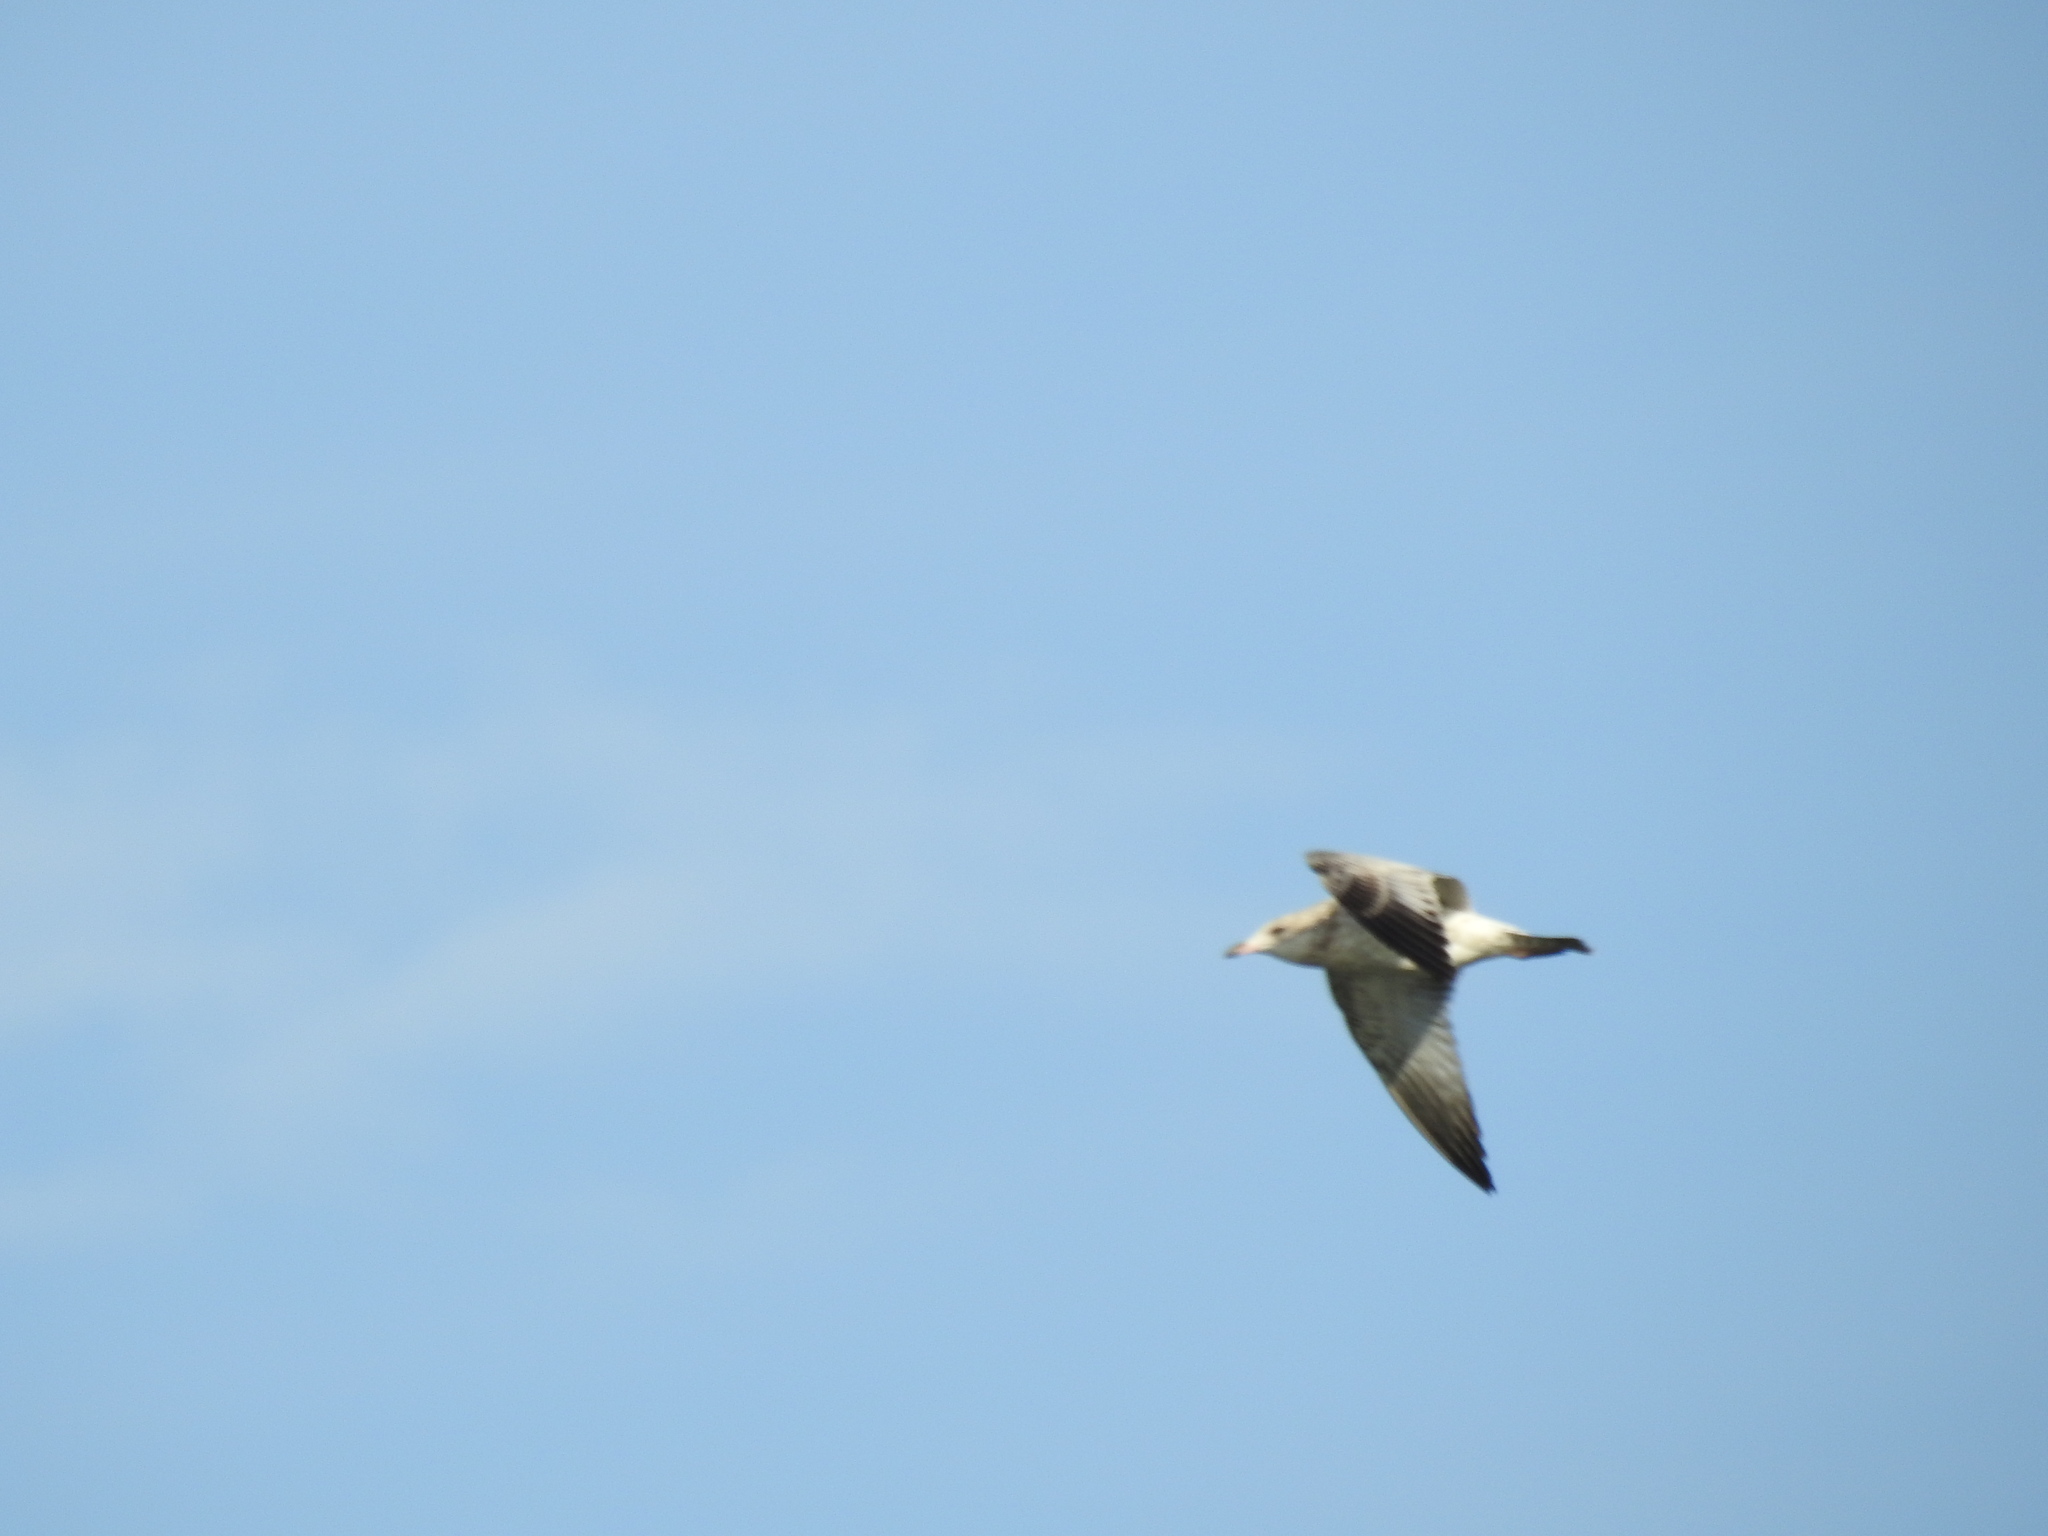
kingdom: Animalia
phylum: Chordata
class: Aves
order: Charadriiformes
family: Laridae
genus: Larus
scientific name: Larus delawarensis
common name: Ring-billed gull
